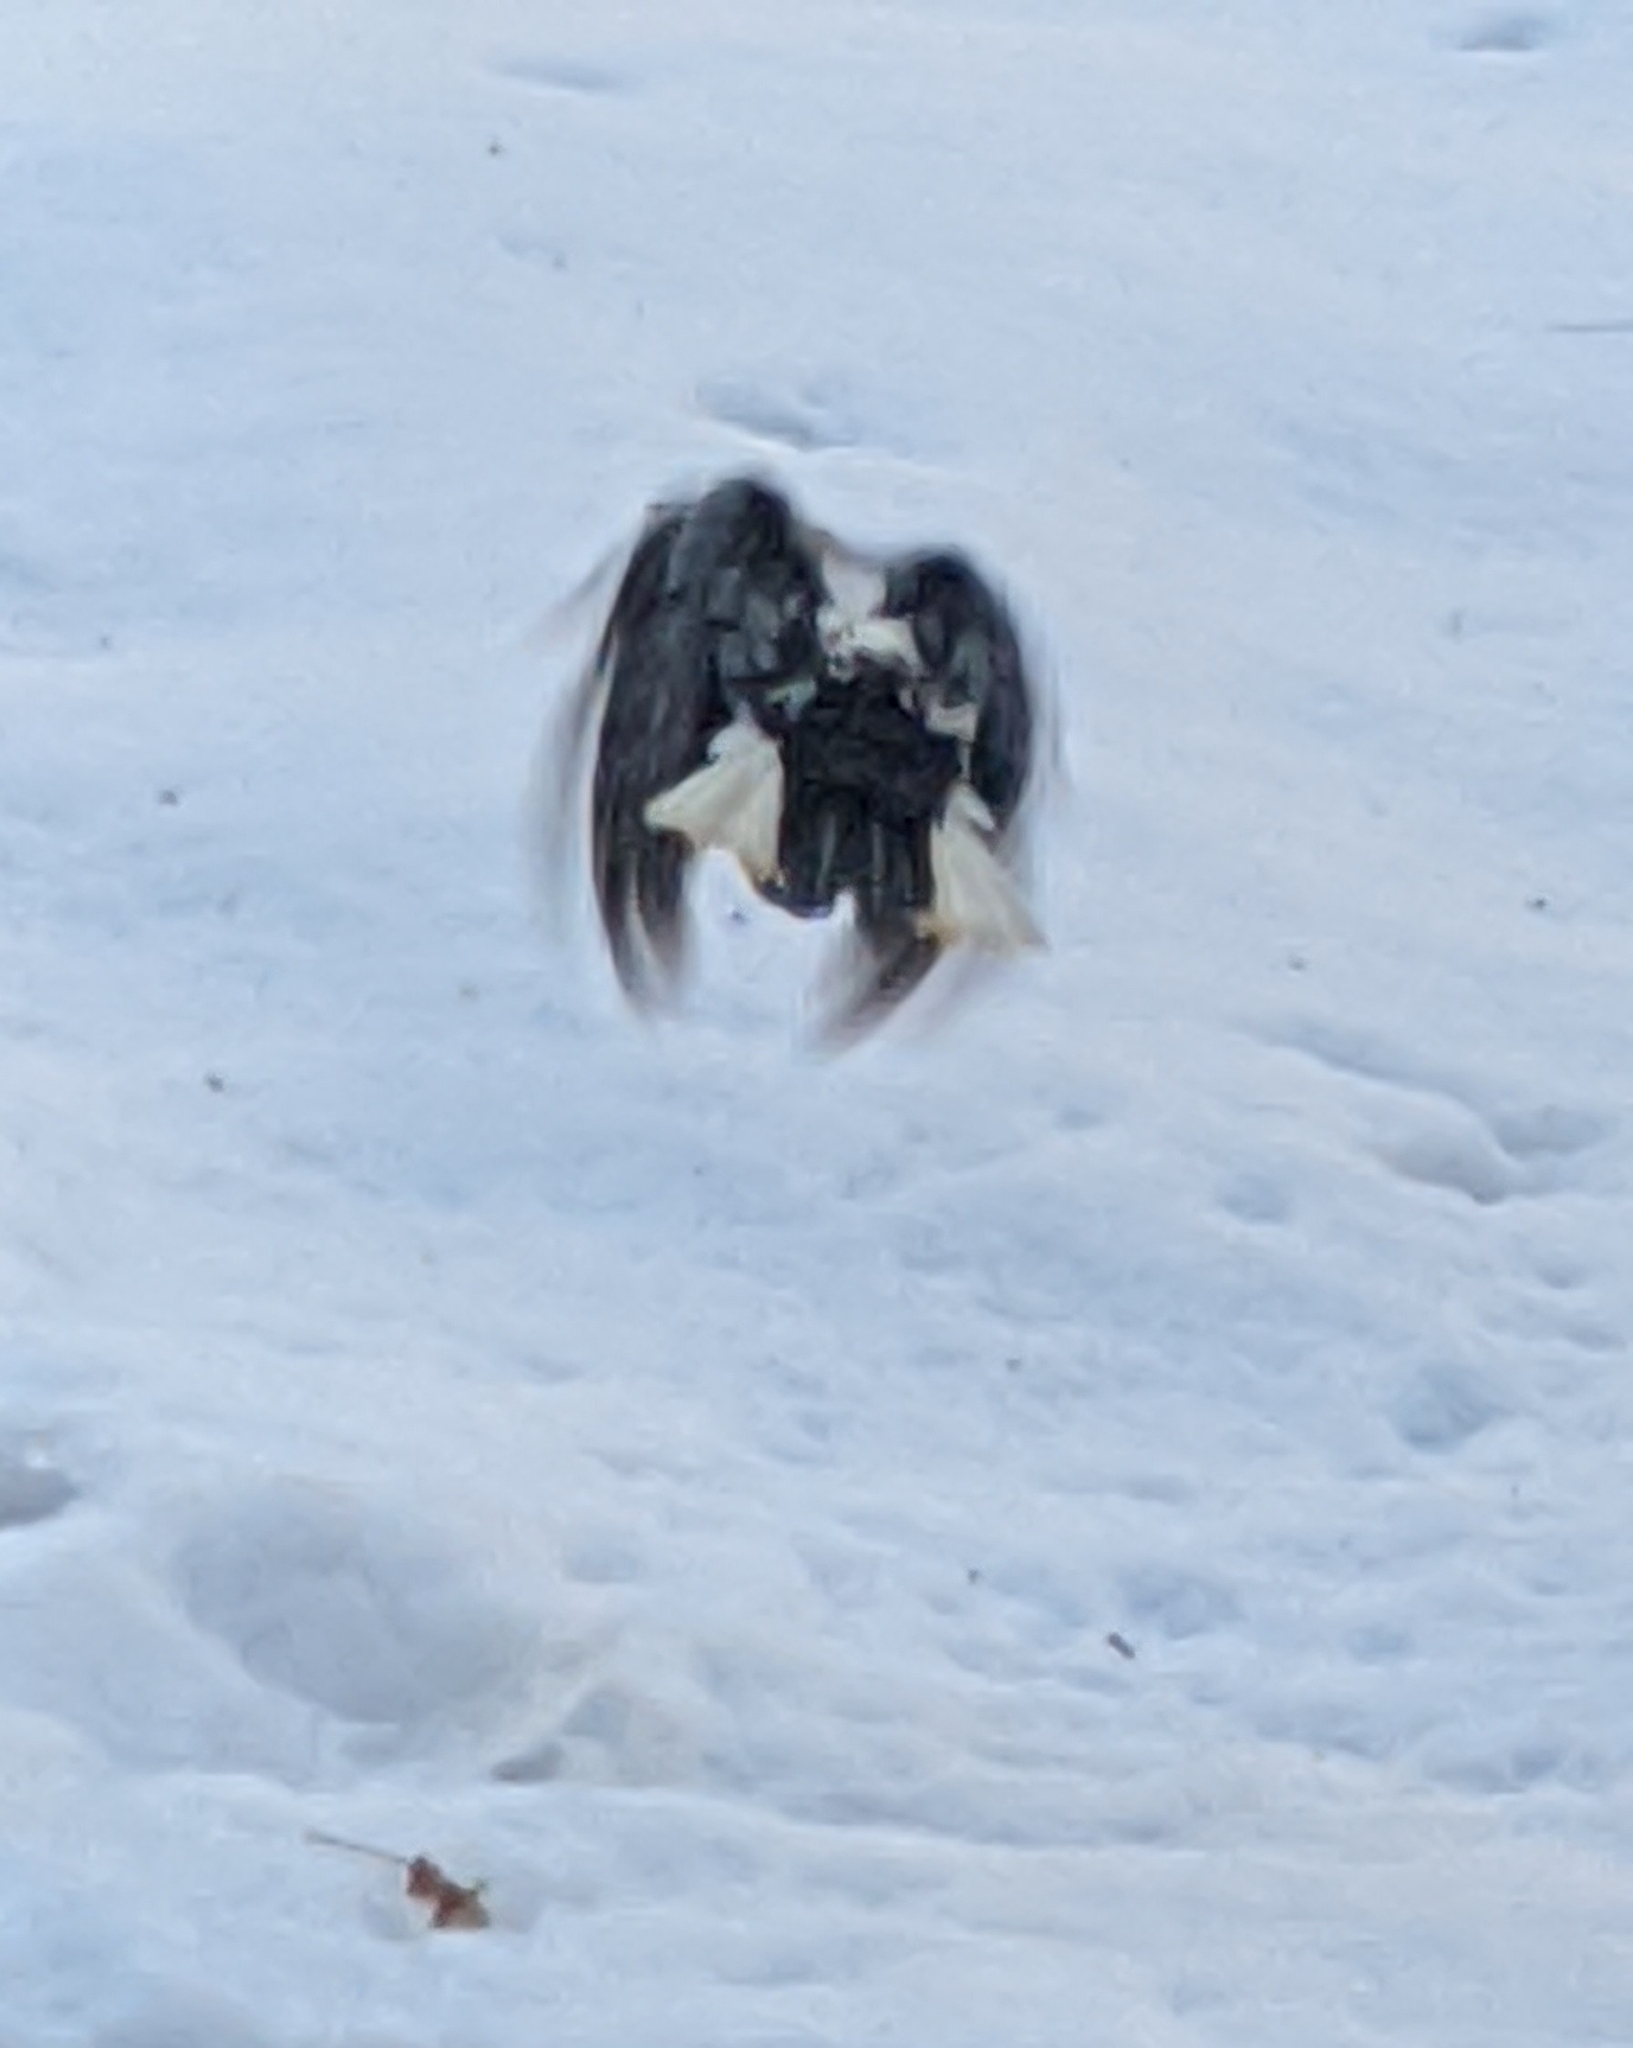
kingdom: Animalia
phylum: Chordata
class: Aves
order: Piciformes
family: Picidae
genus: Leuconotopicus
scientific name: Leuconotopicus villosus
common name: Hairy woodpecker
